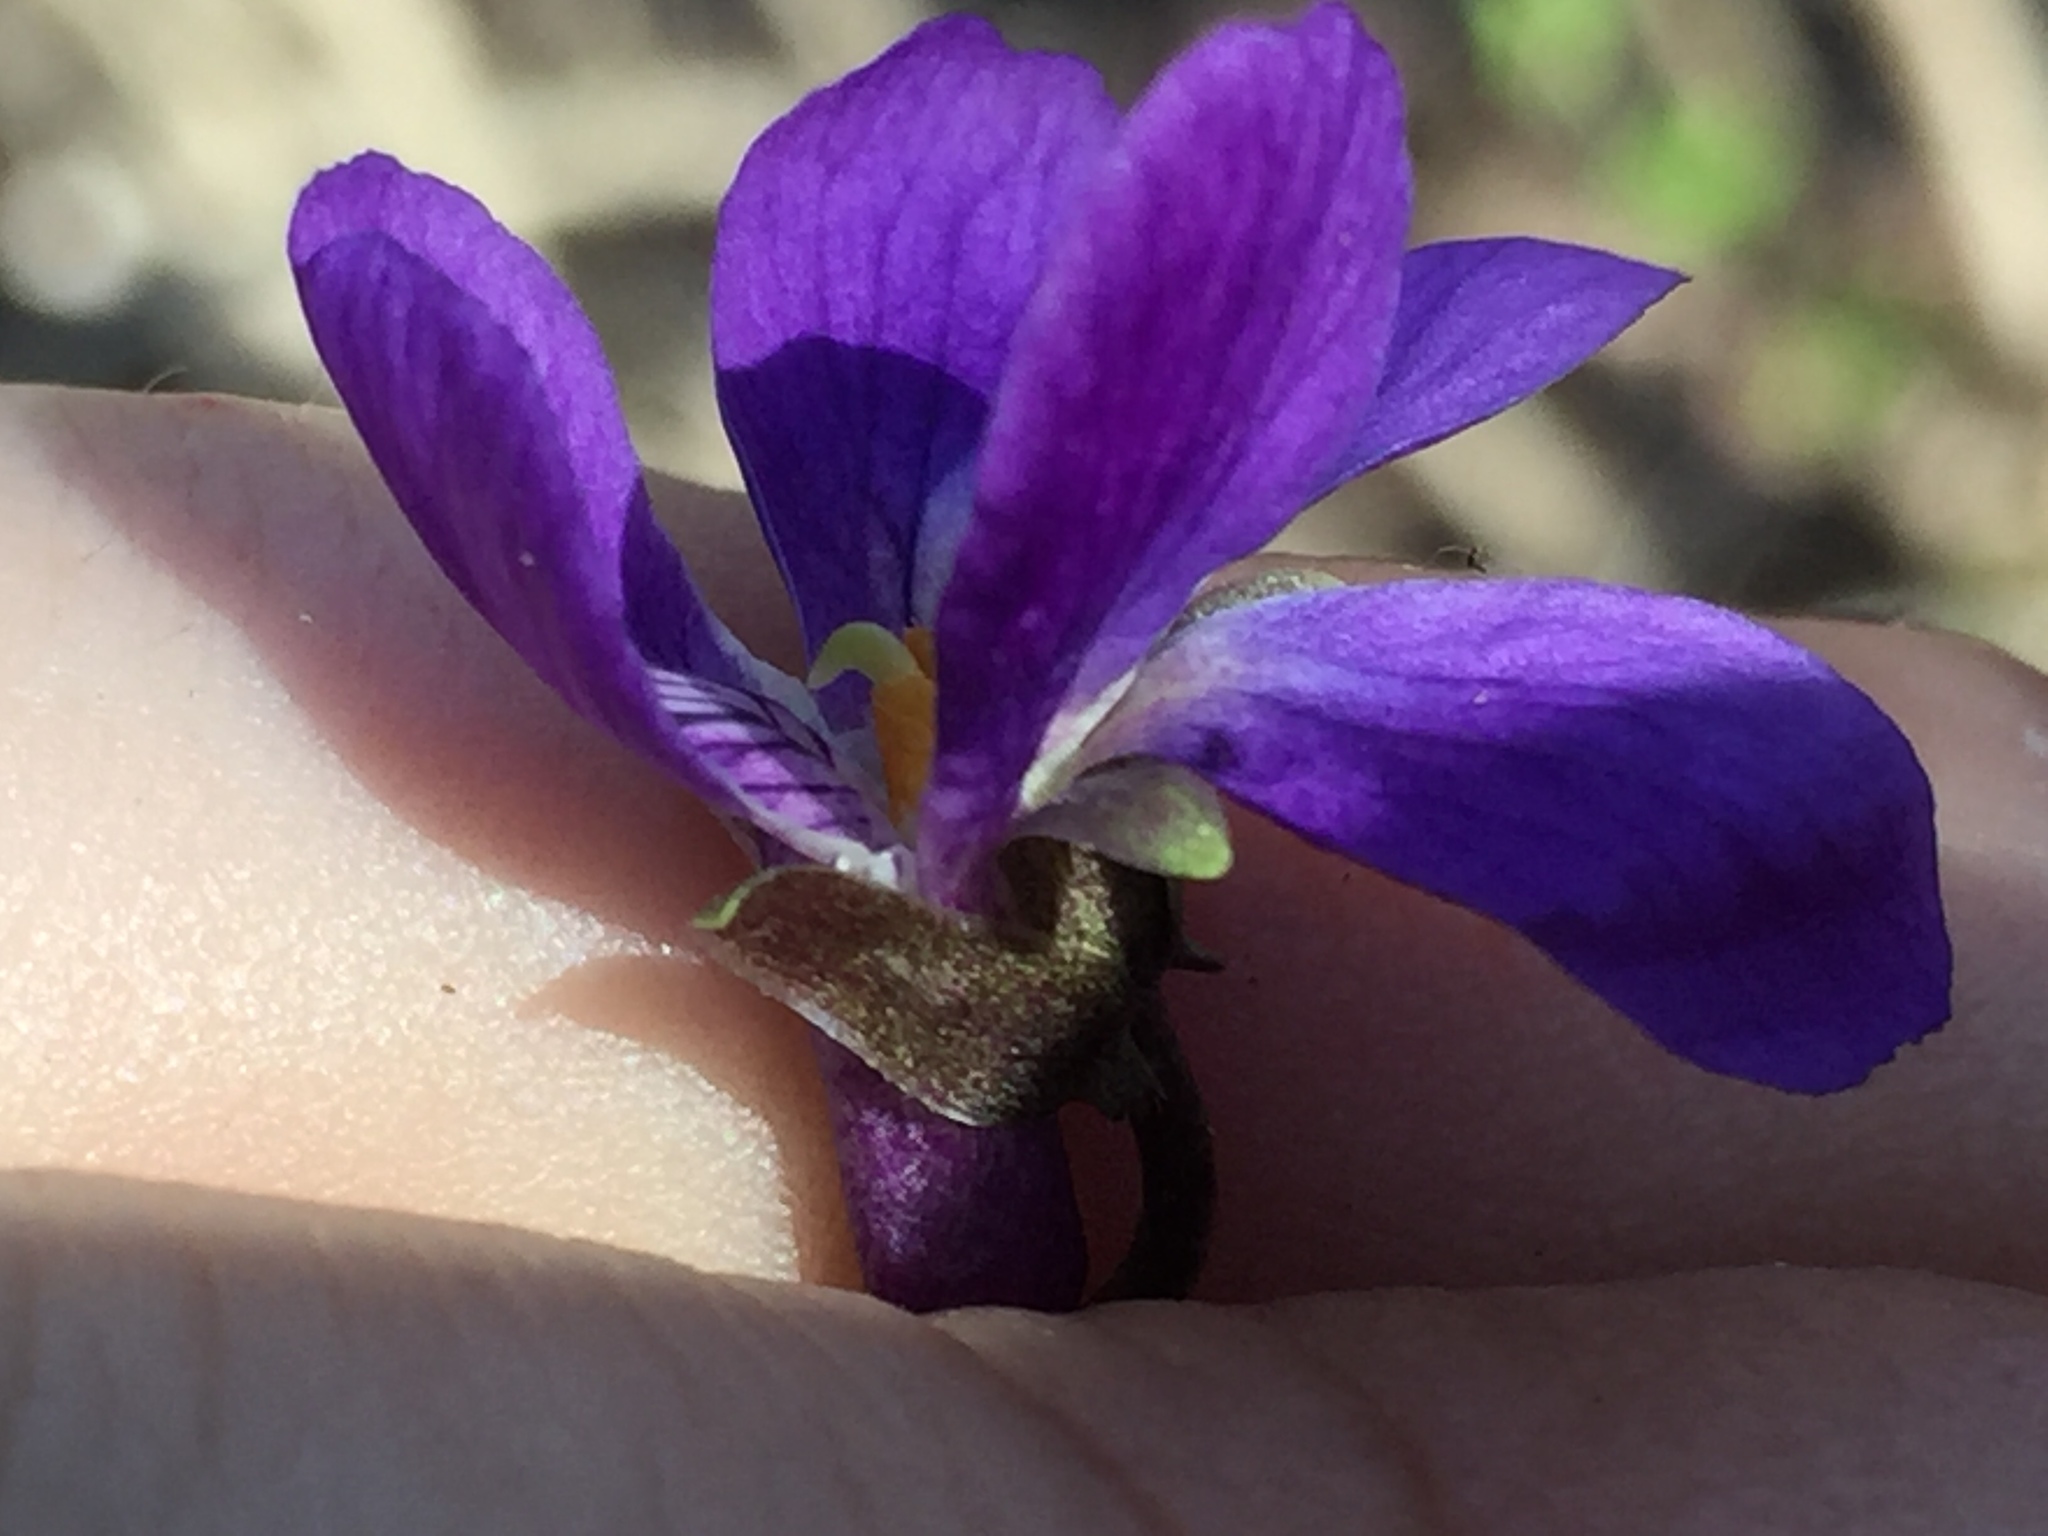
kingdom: Plantae
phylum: Tracheophyta
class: Magnoliopsida
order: Malpighiales
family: Violaceae
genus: Viola
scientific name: Viola odorata
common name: Sweet violet
